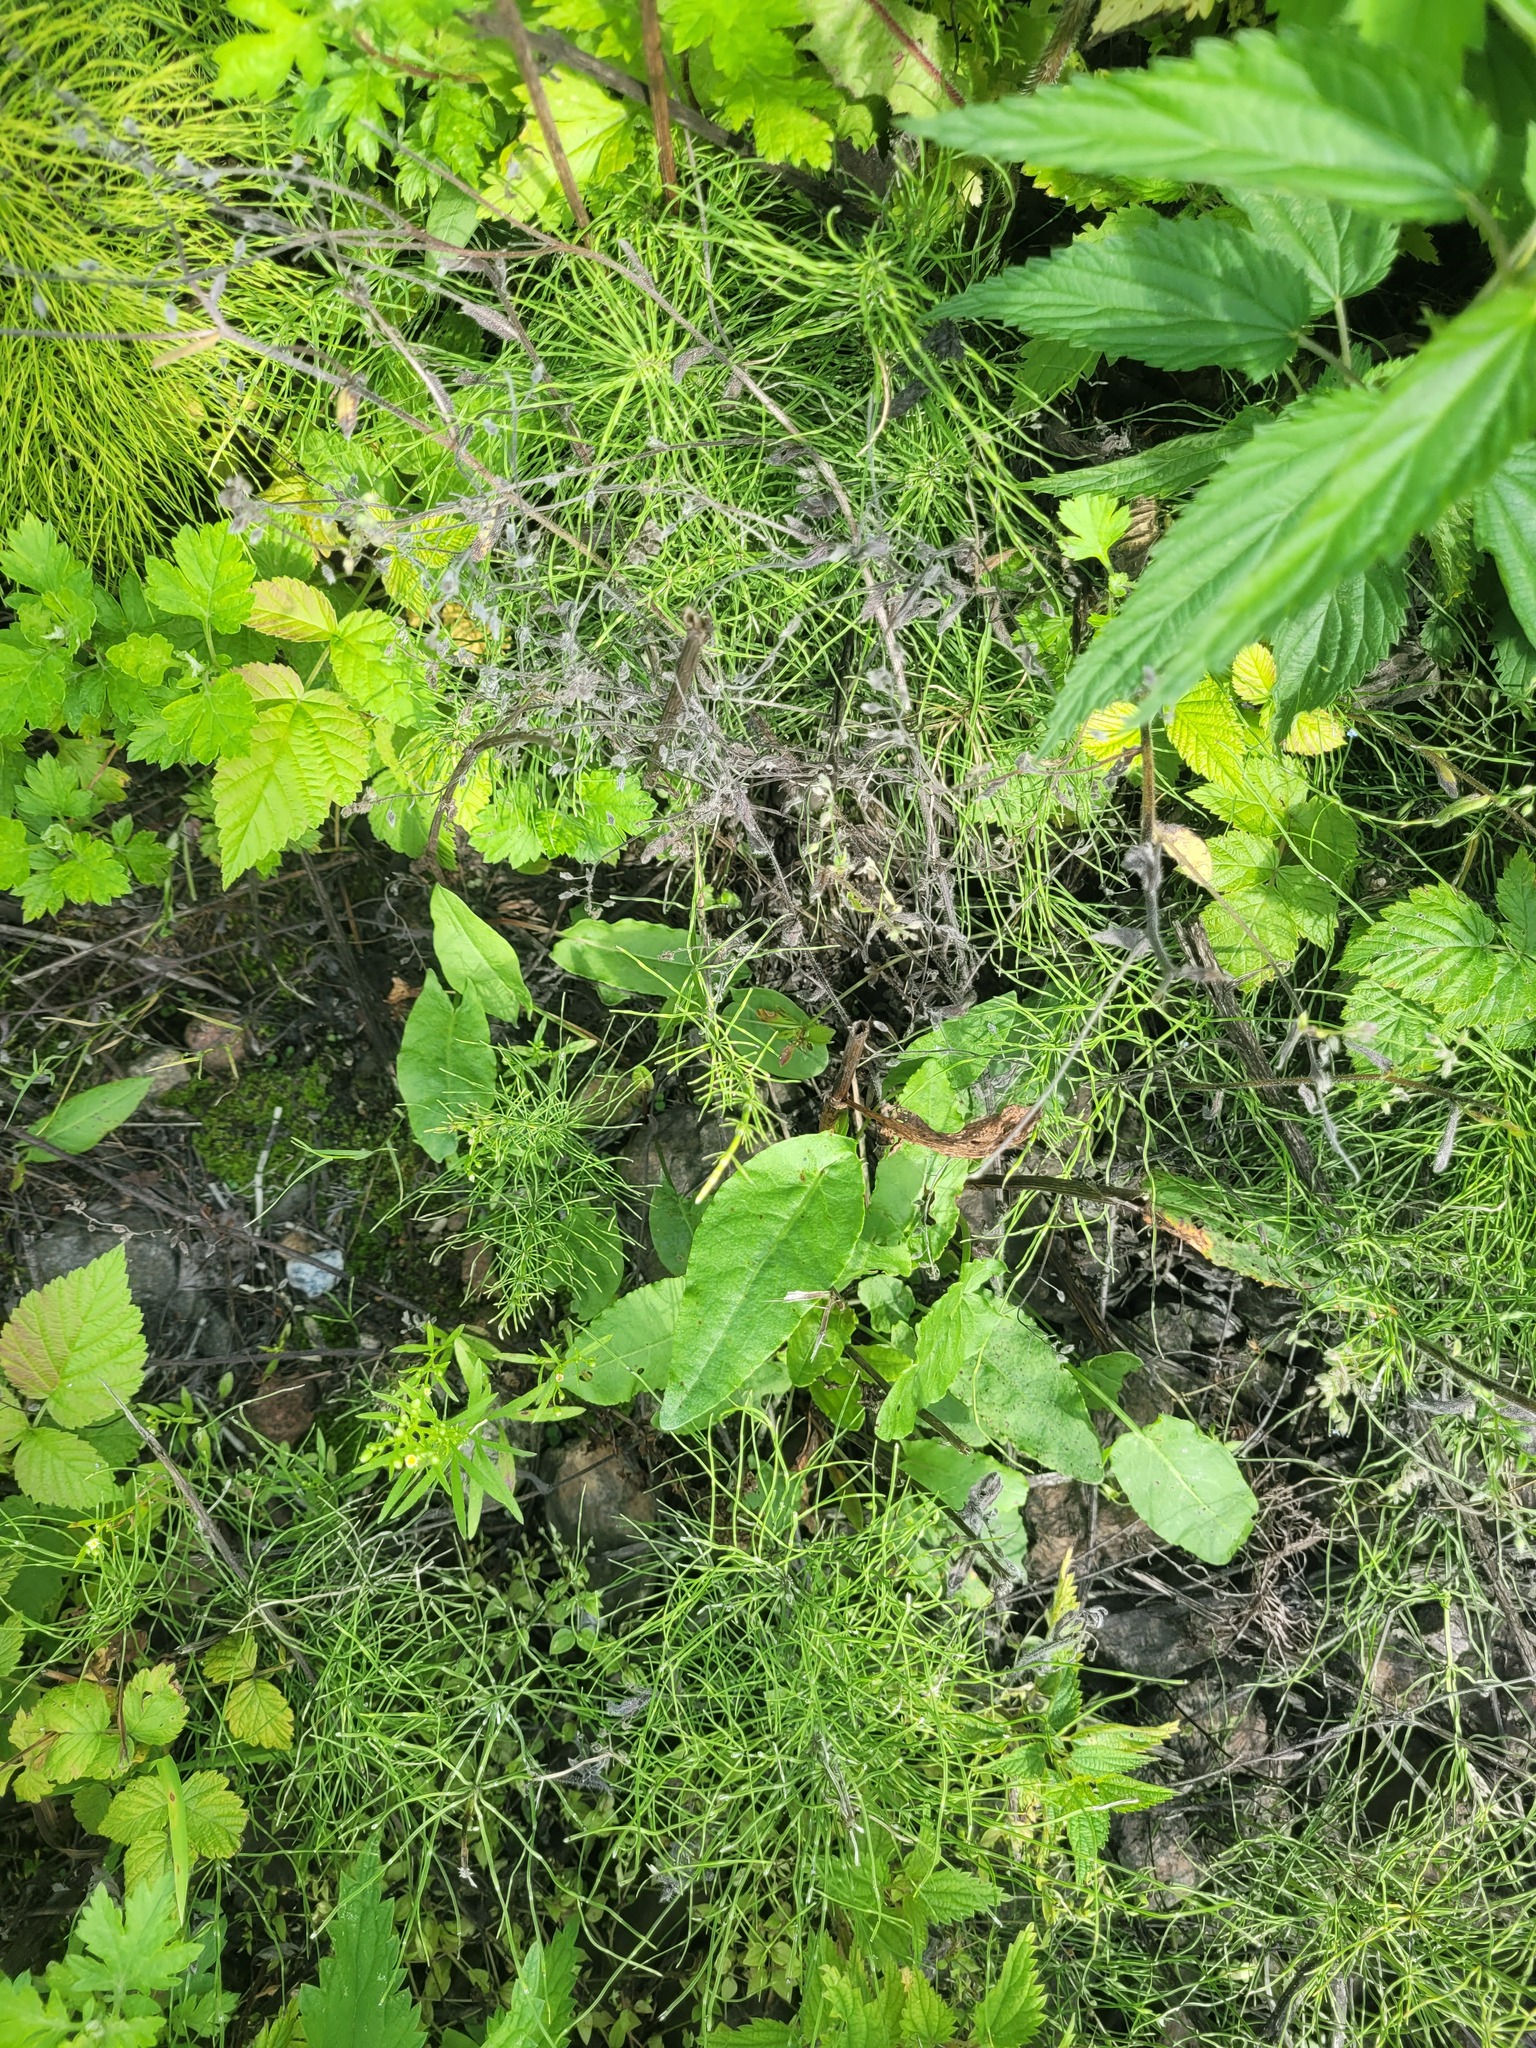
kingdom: Plantae
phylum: Tracheophyta
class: Magnoliopsida
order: Caryophyllales
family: Polygonaceae
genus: Rumex
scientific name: Rumex acetosa
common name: Garden sorrel
